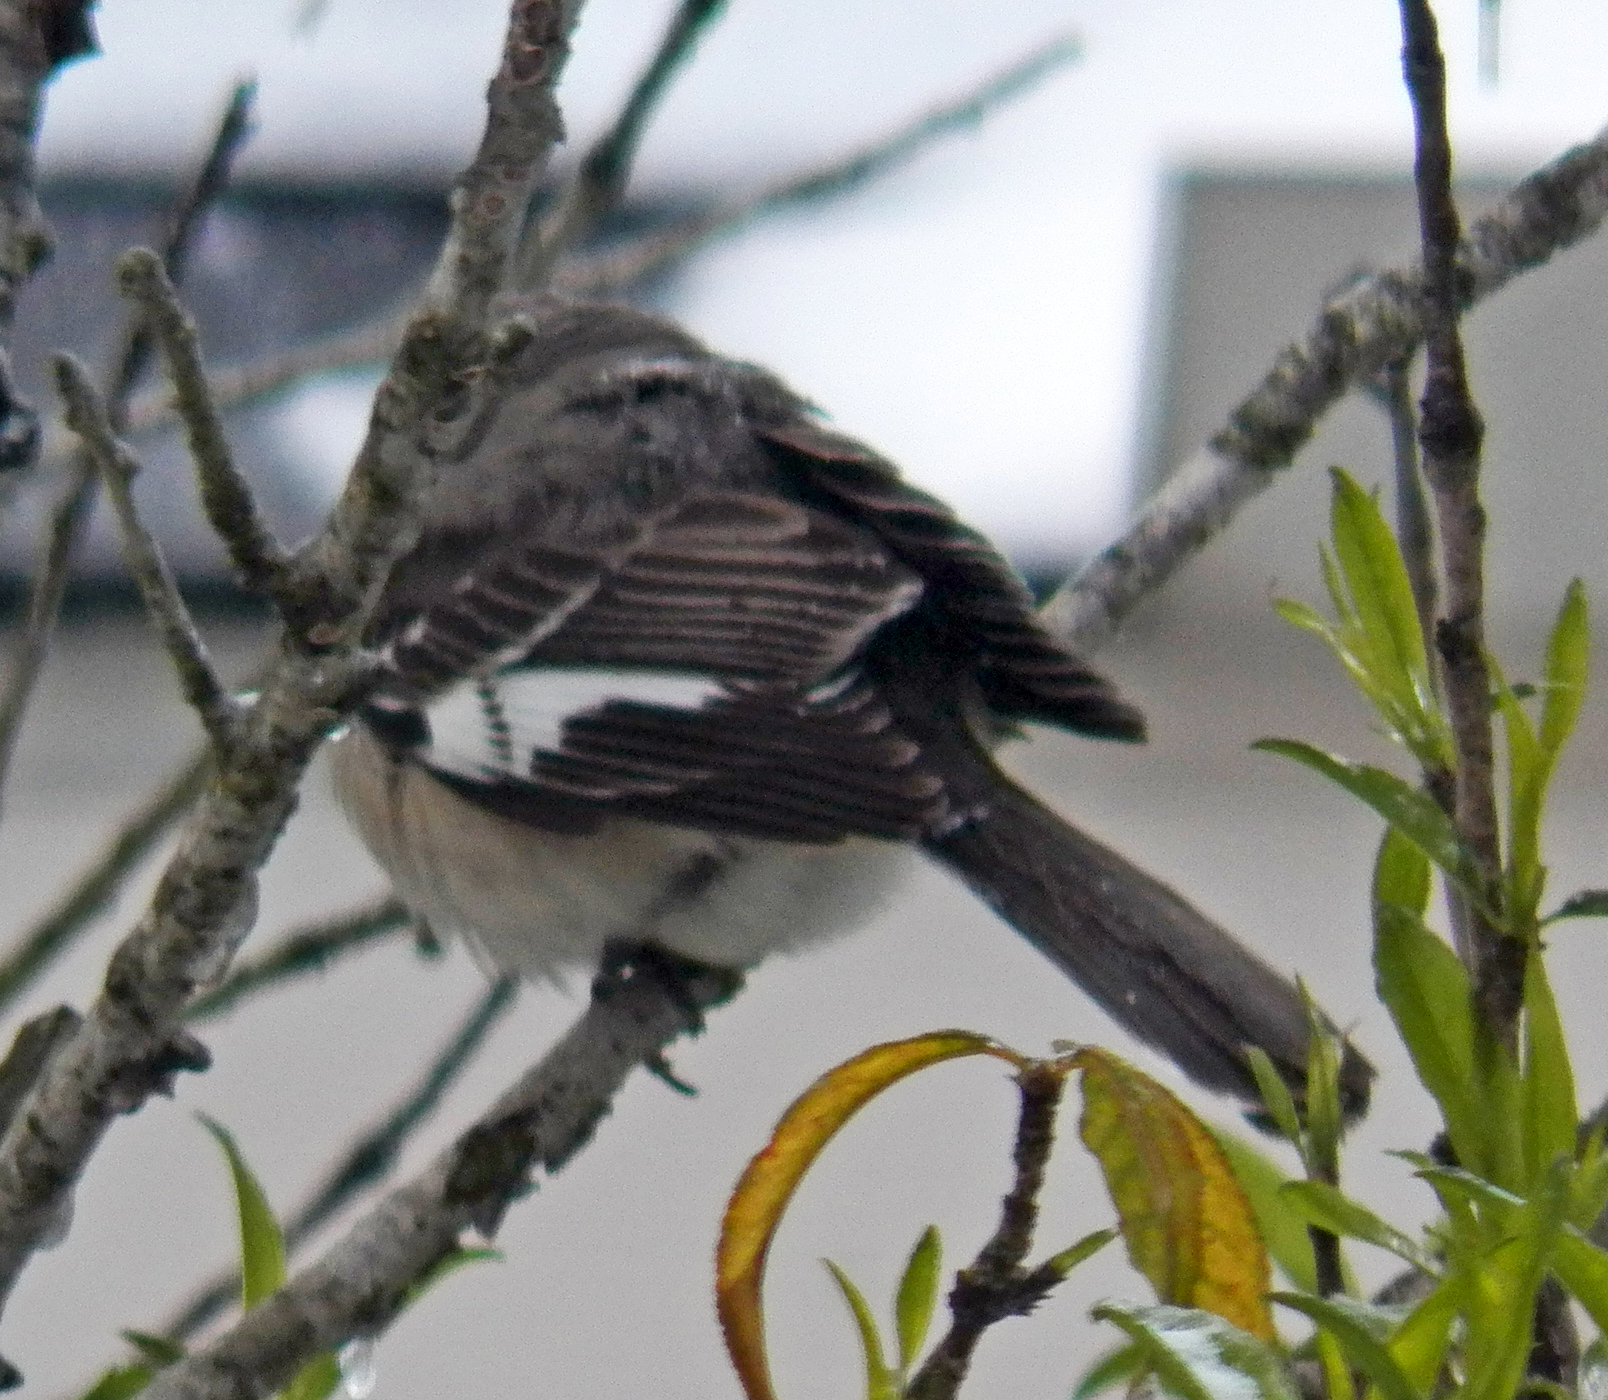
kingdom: Animalia
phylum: Chordata
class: Aves
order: Passeriformes
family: Mimidae
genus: Mimus
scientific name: Mimus polyglottos
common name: Northern mockingbird
